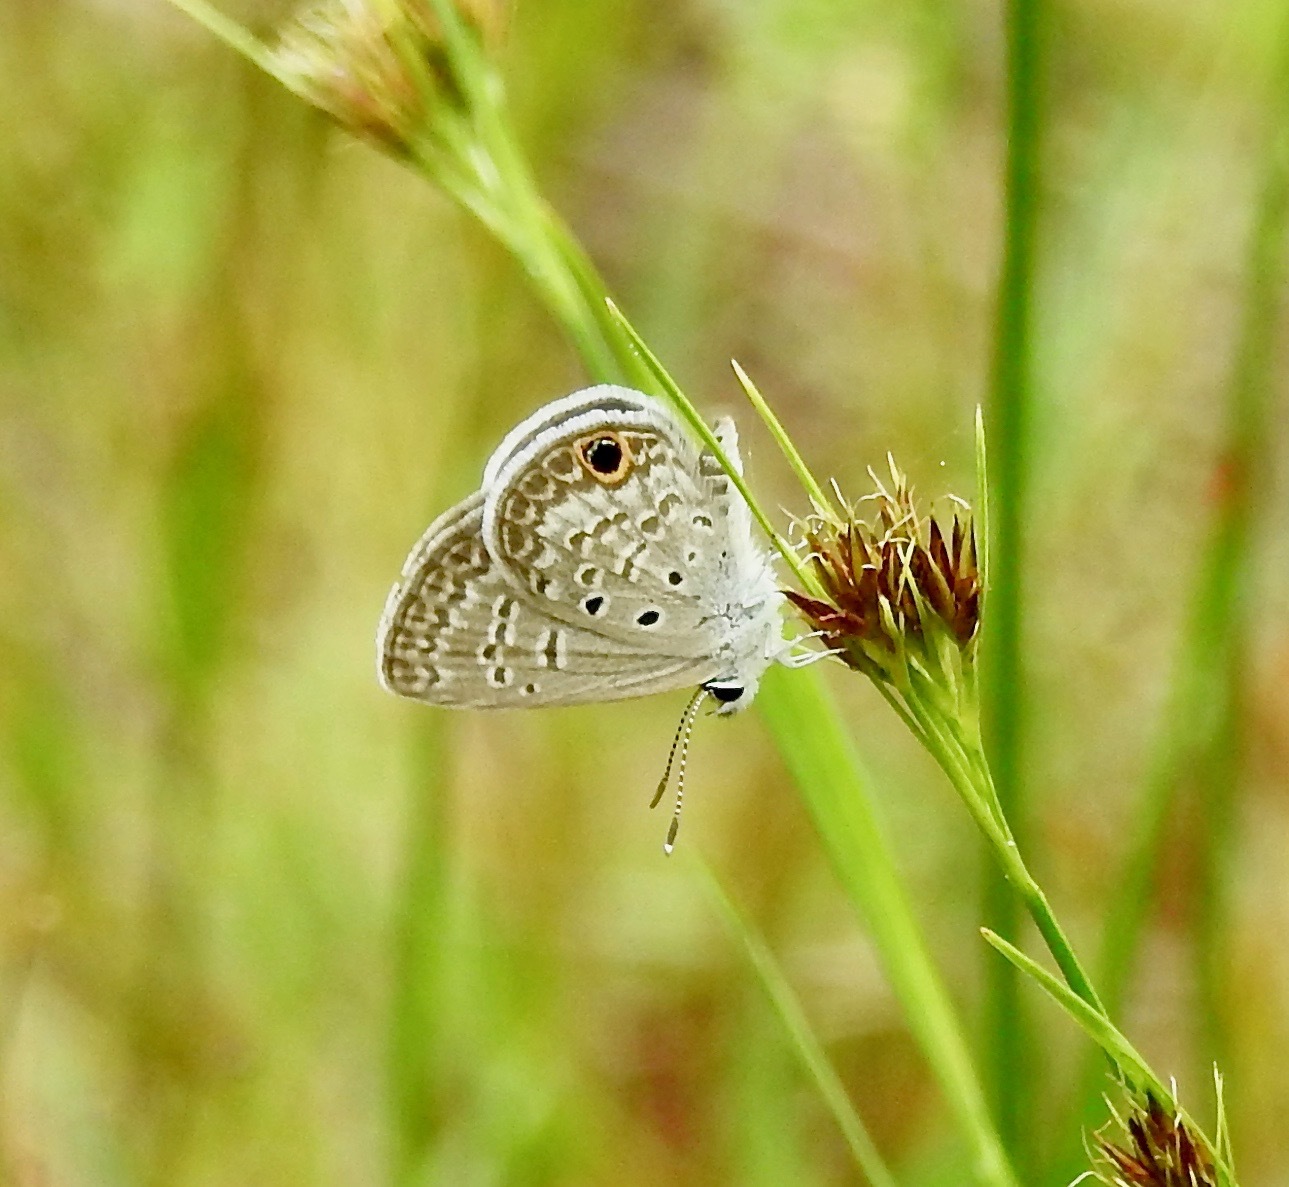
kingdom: Animalia
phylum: Arthropoda
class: Insecta
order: Lepidoptera
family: Lycaenidae
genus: Hemiargus
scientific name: Hemiargus ceraunus
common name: Ceraunus blue
